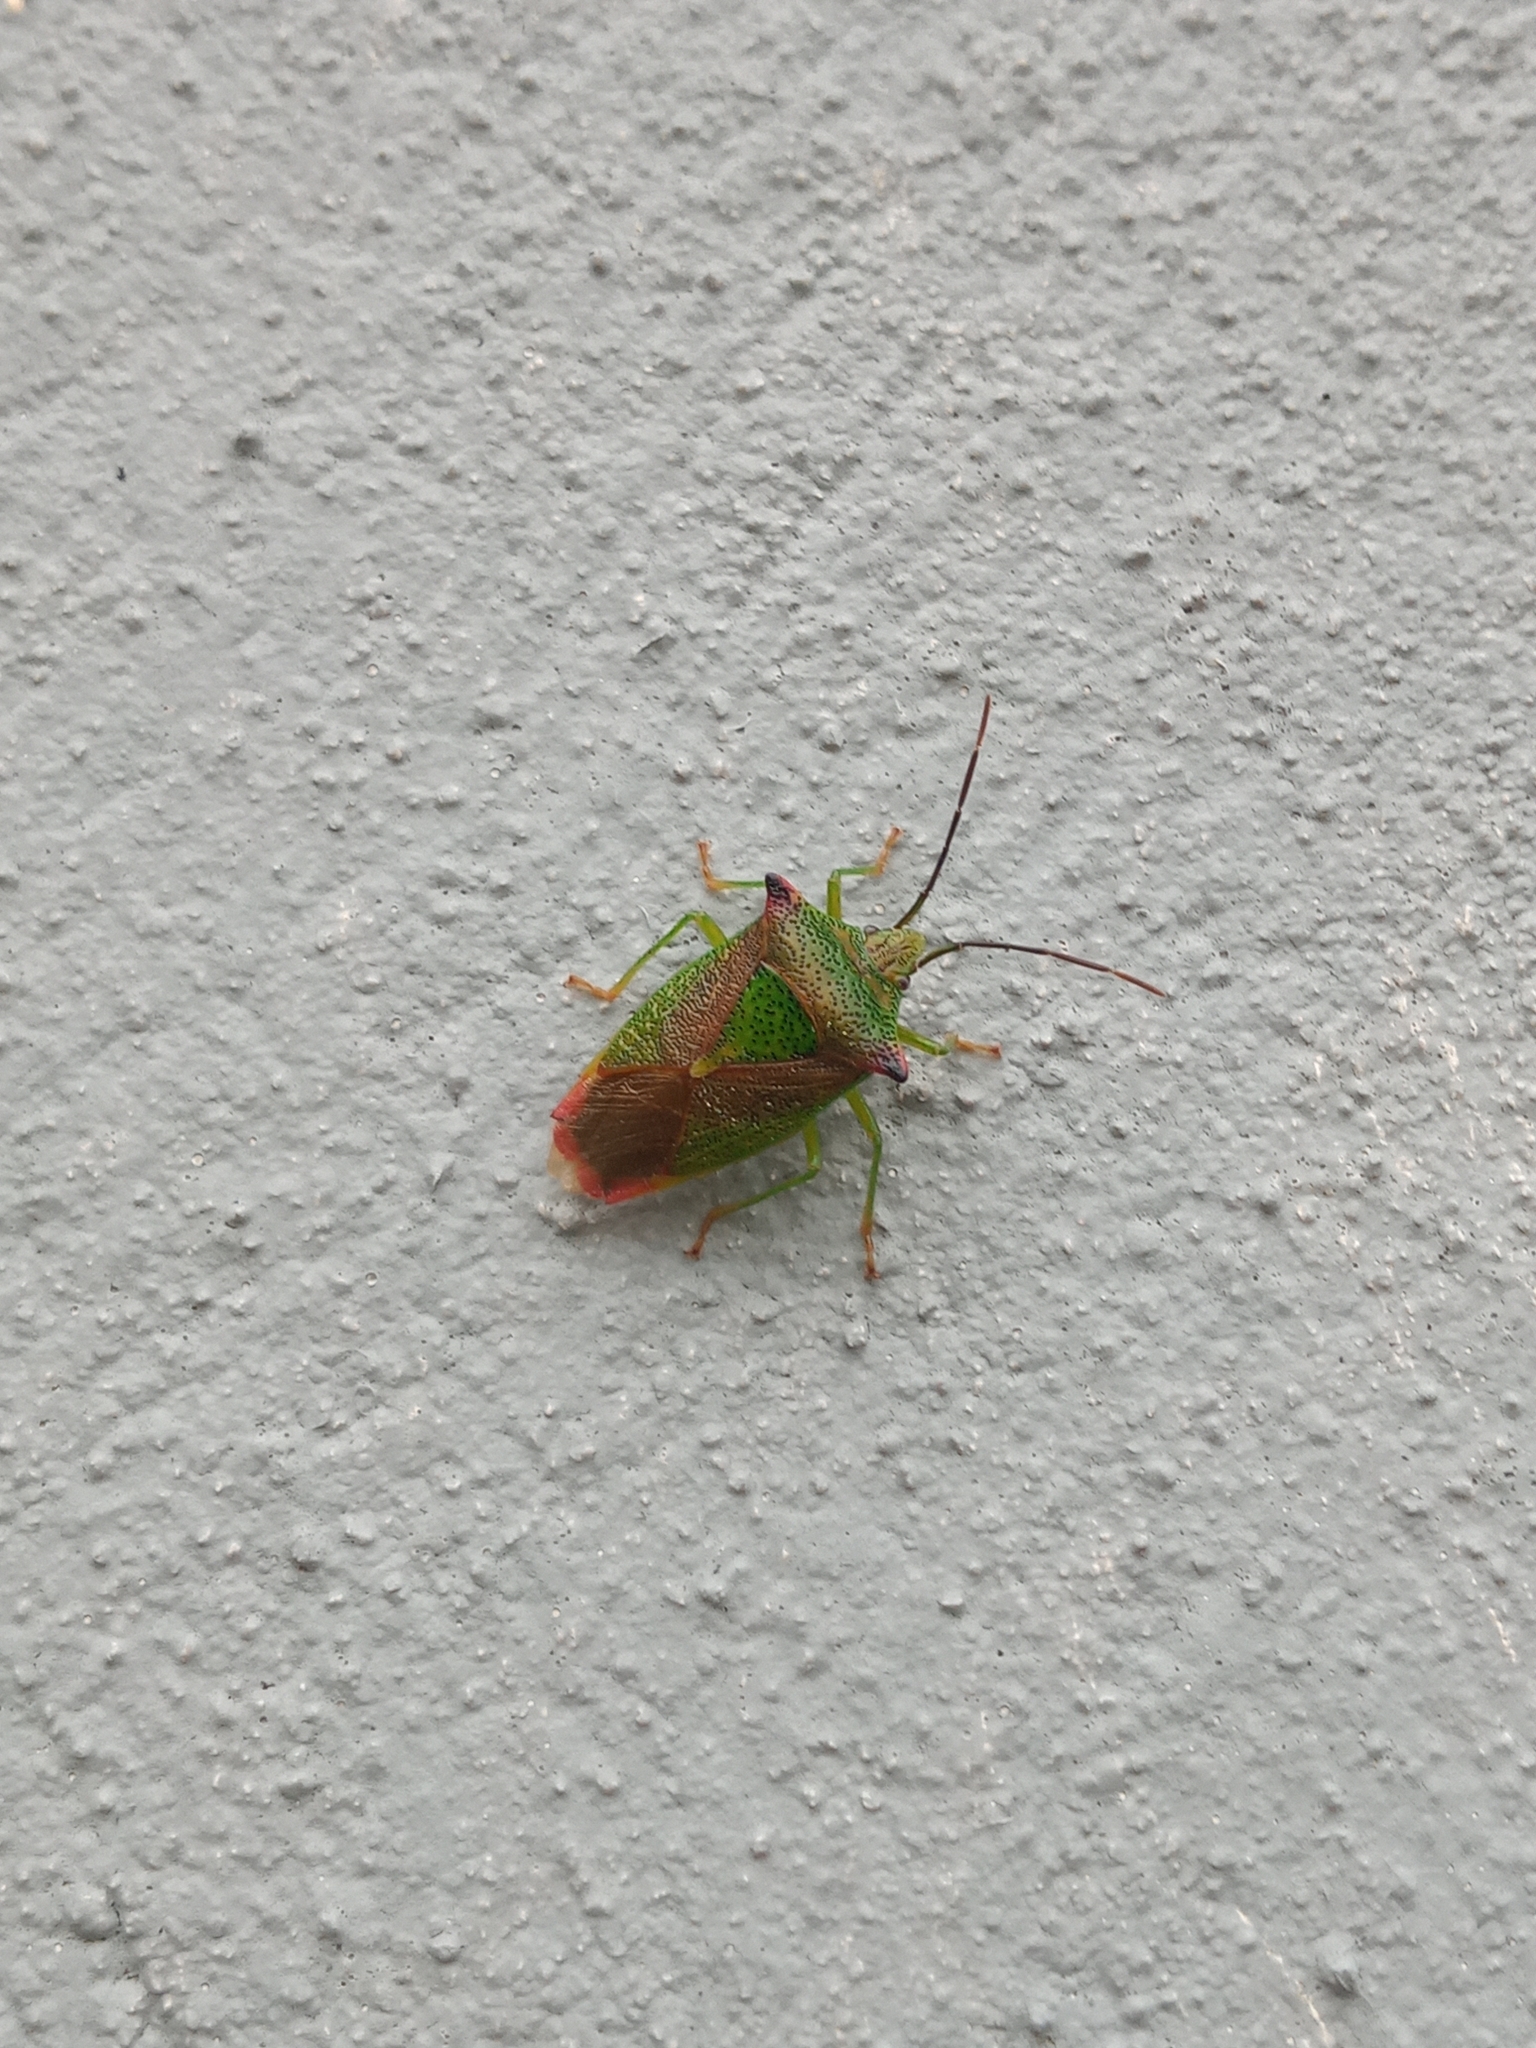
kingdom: Animalia
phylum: Arthropoda
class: Insecta
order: Hemiptera
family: Acanthosomatidae
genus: Acanthosoma
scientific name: Acanthosoma haemorrhoidale
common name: Hawthorn shieldbug
